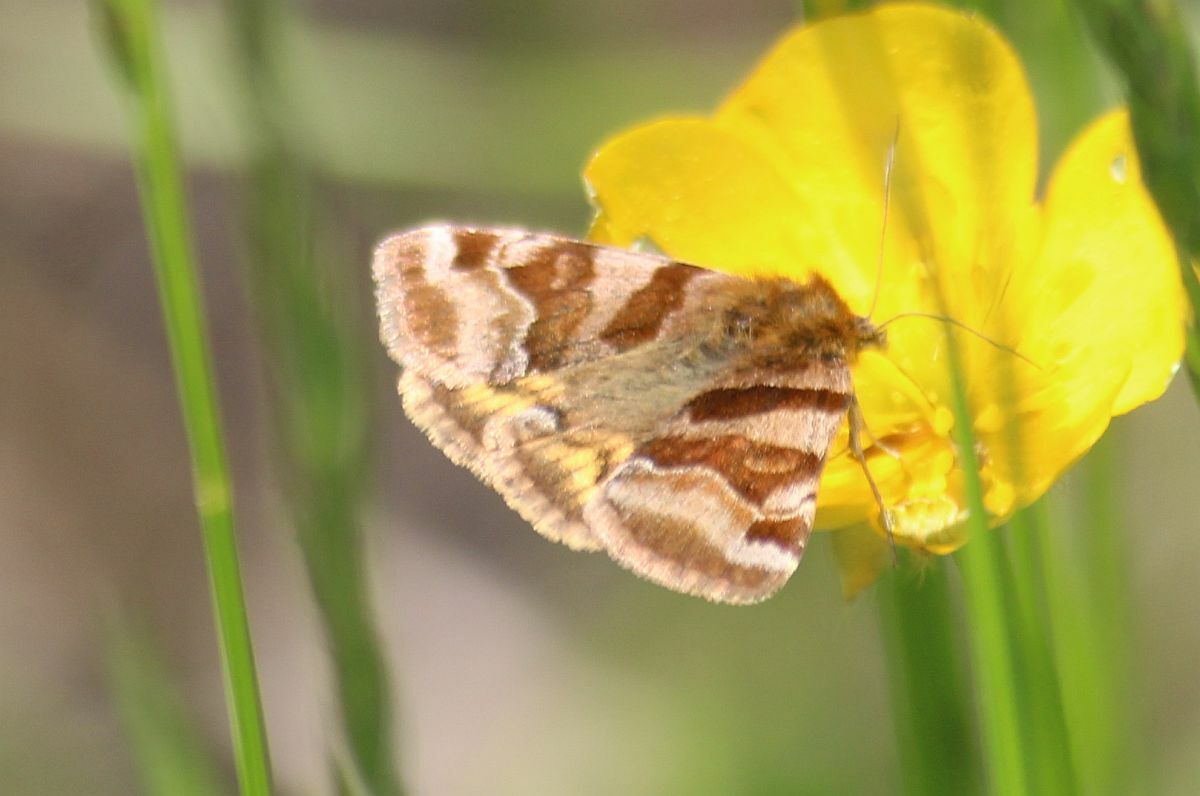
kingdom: Animalia
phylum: Arthropoda
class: Insecta
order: Lepidoptera
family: Erebidae
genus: Euclidia
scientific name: Euclidia glyphica
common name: Burnet companion
